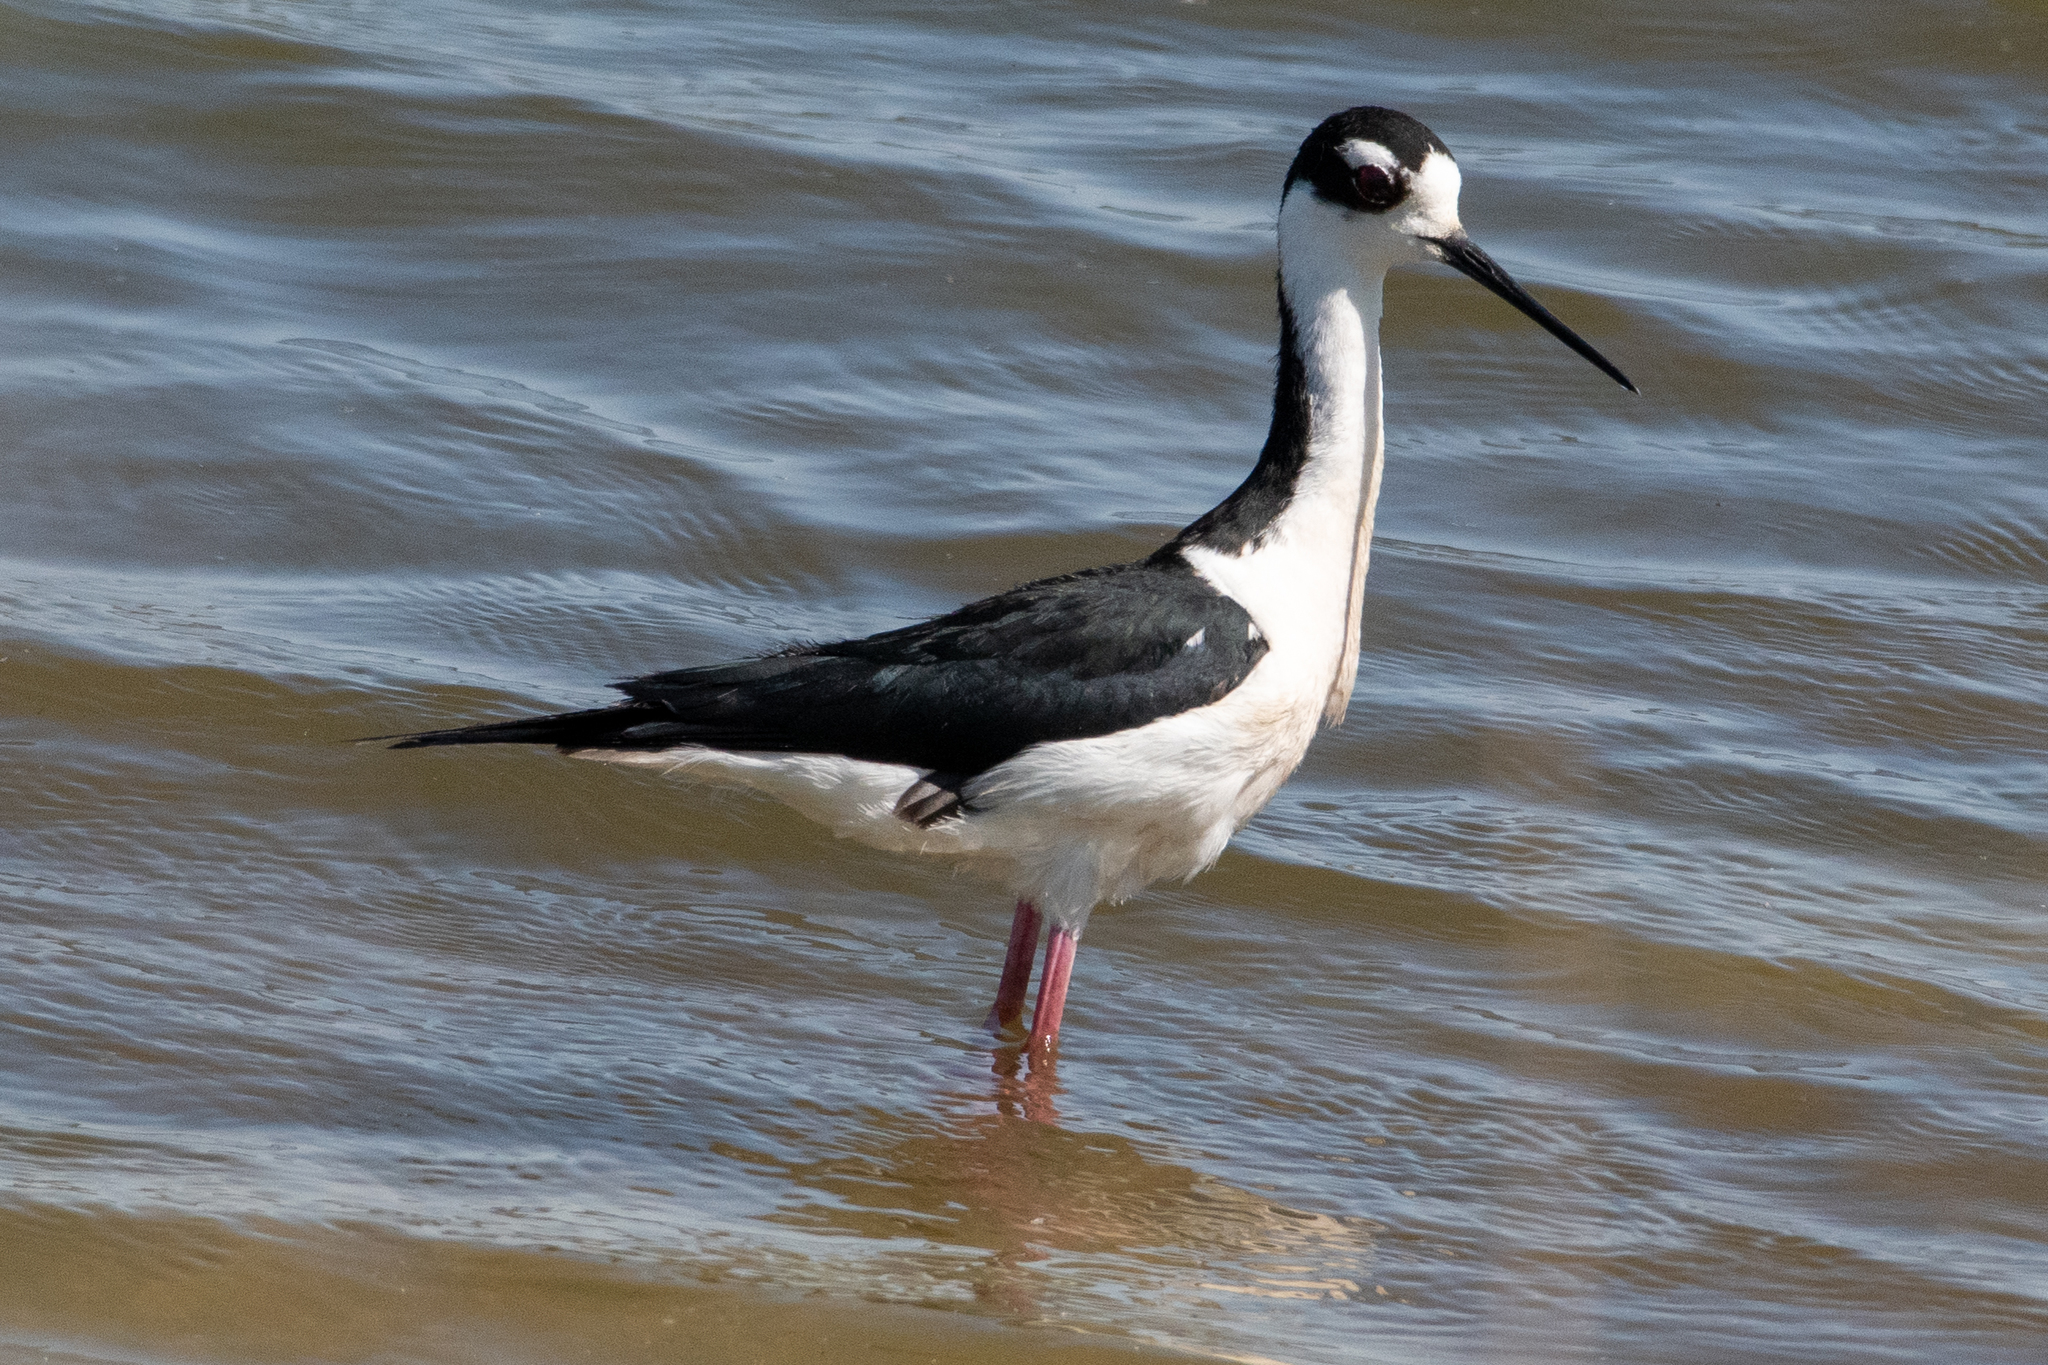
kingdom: Animalia
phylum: Chordata
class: Aves
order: Charadriiformes
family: Recurvirostridae
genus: Himantopus
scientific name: Himantopus mexicanus
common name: Black-necked stilt
